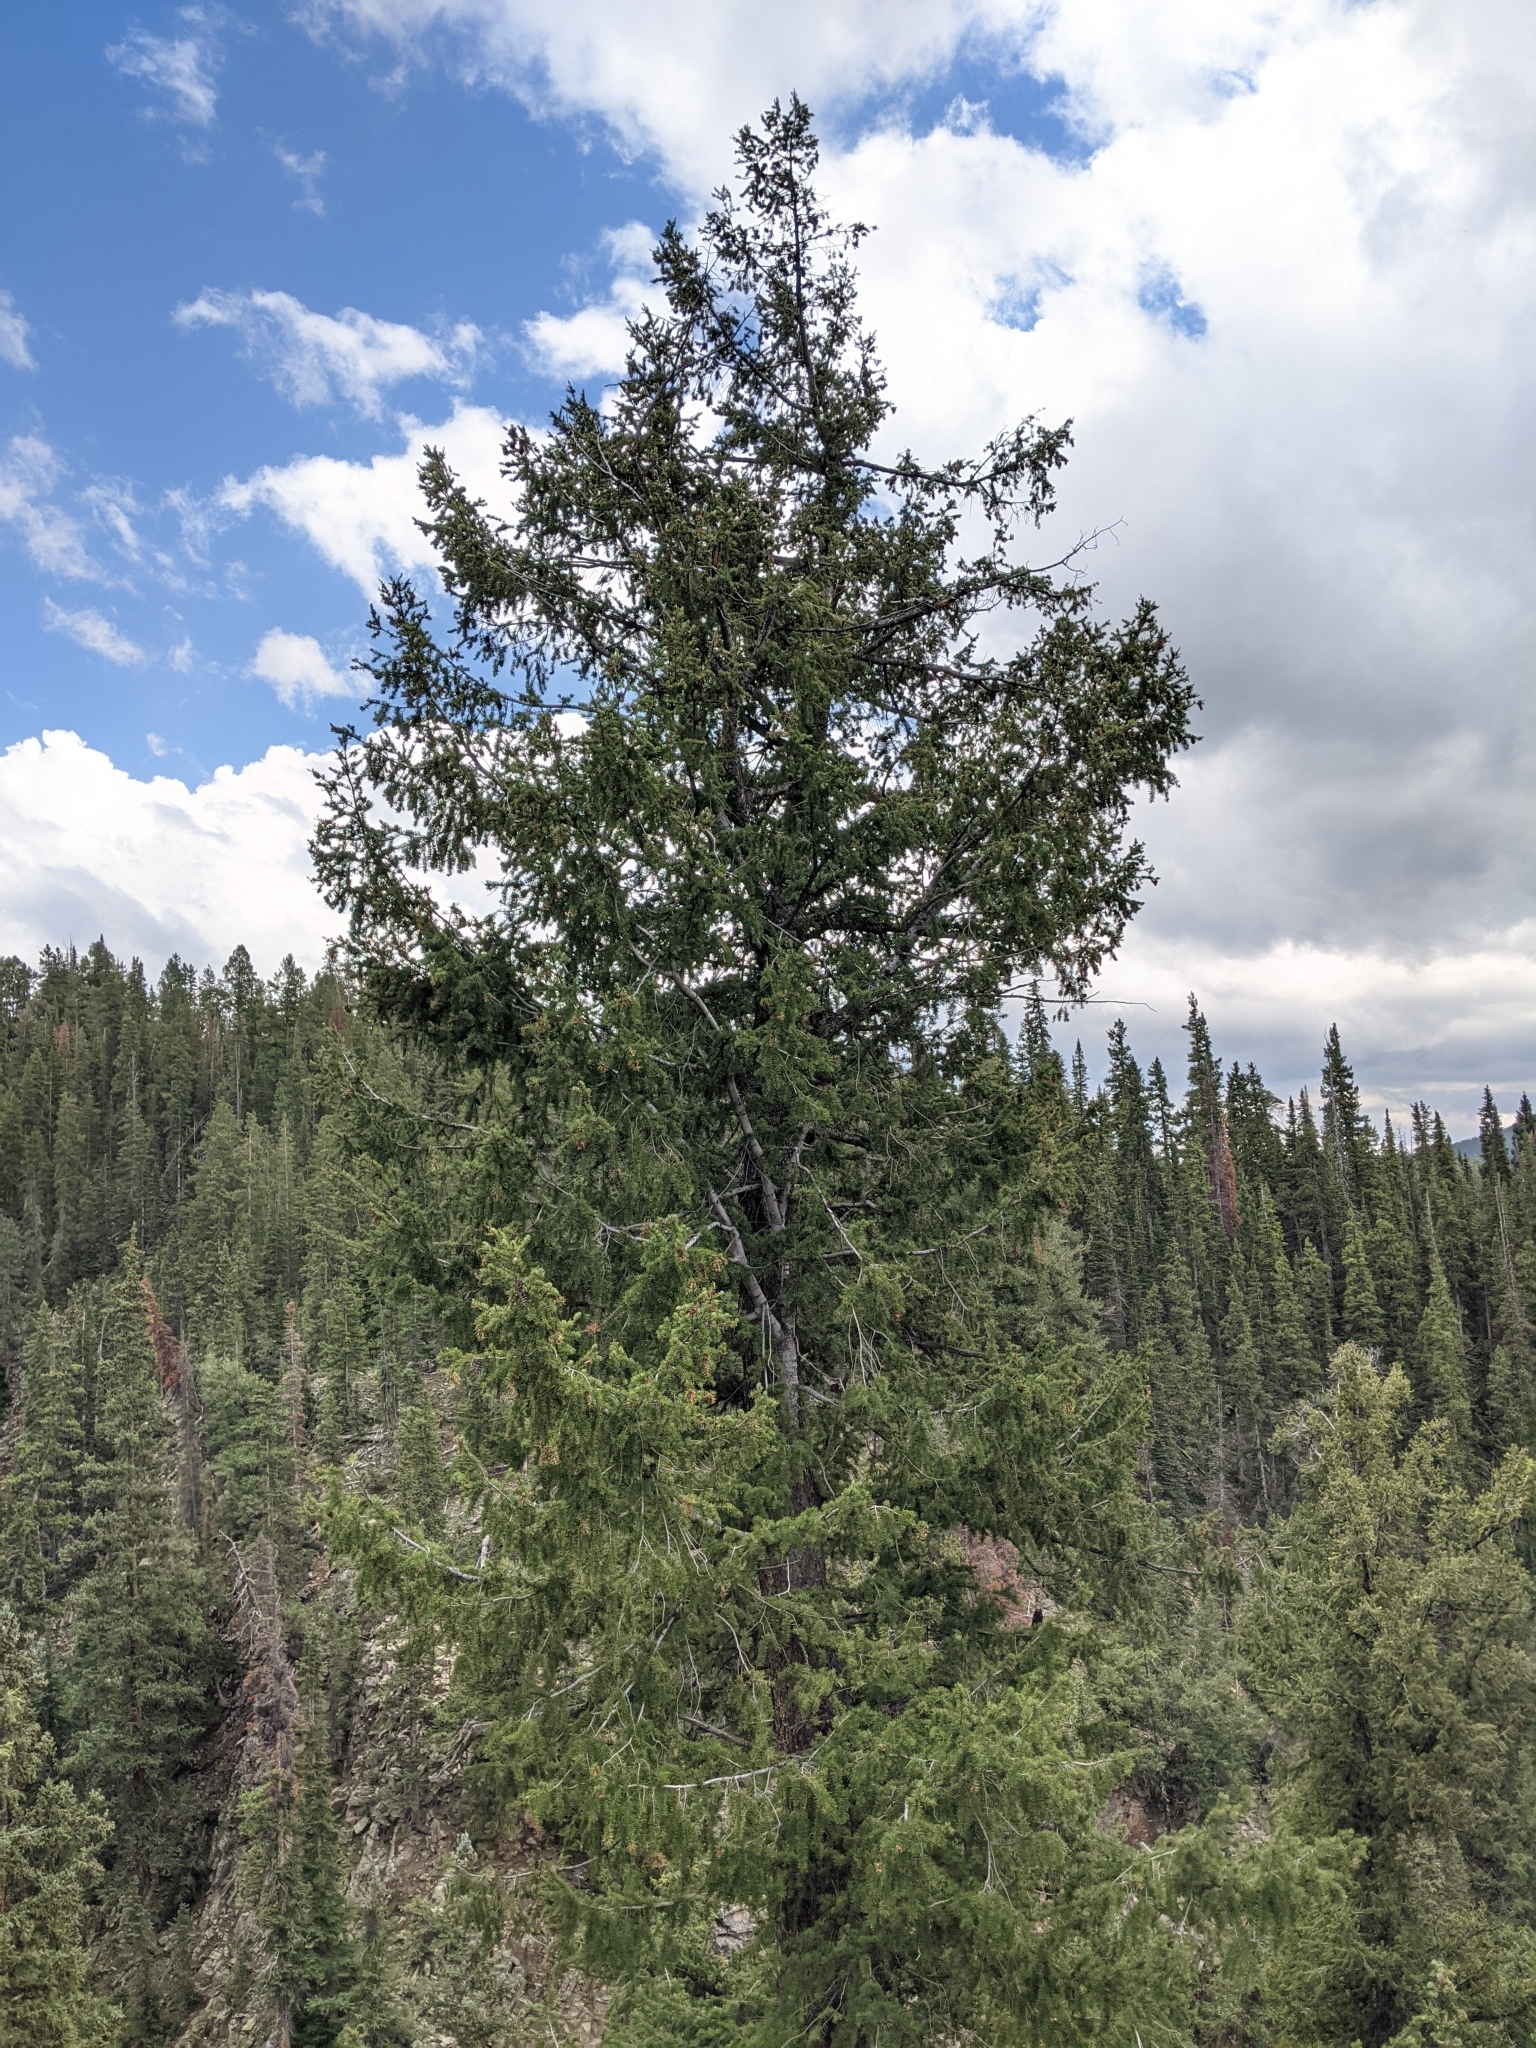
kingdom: Plantae
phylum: Tracheophyta
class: Pinopsida
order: Pinales
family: Pinaceae
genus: Pseudotsuga
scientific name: Pseudotsuga menziesii
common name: Douglas fir
